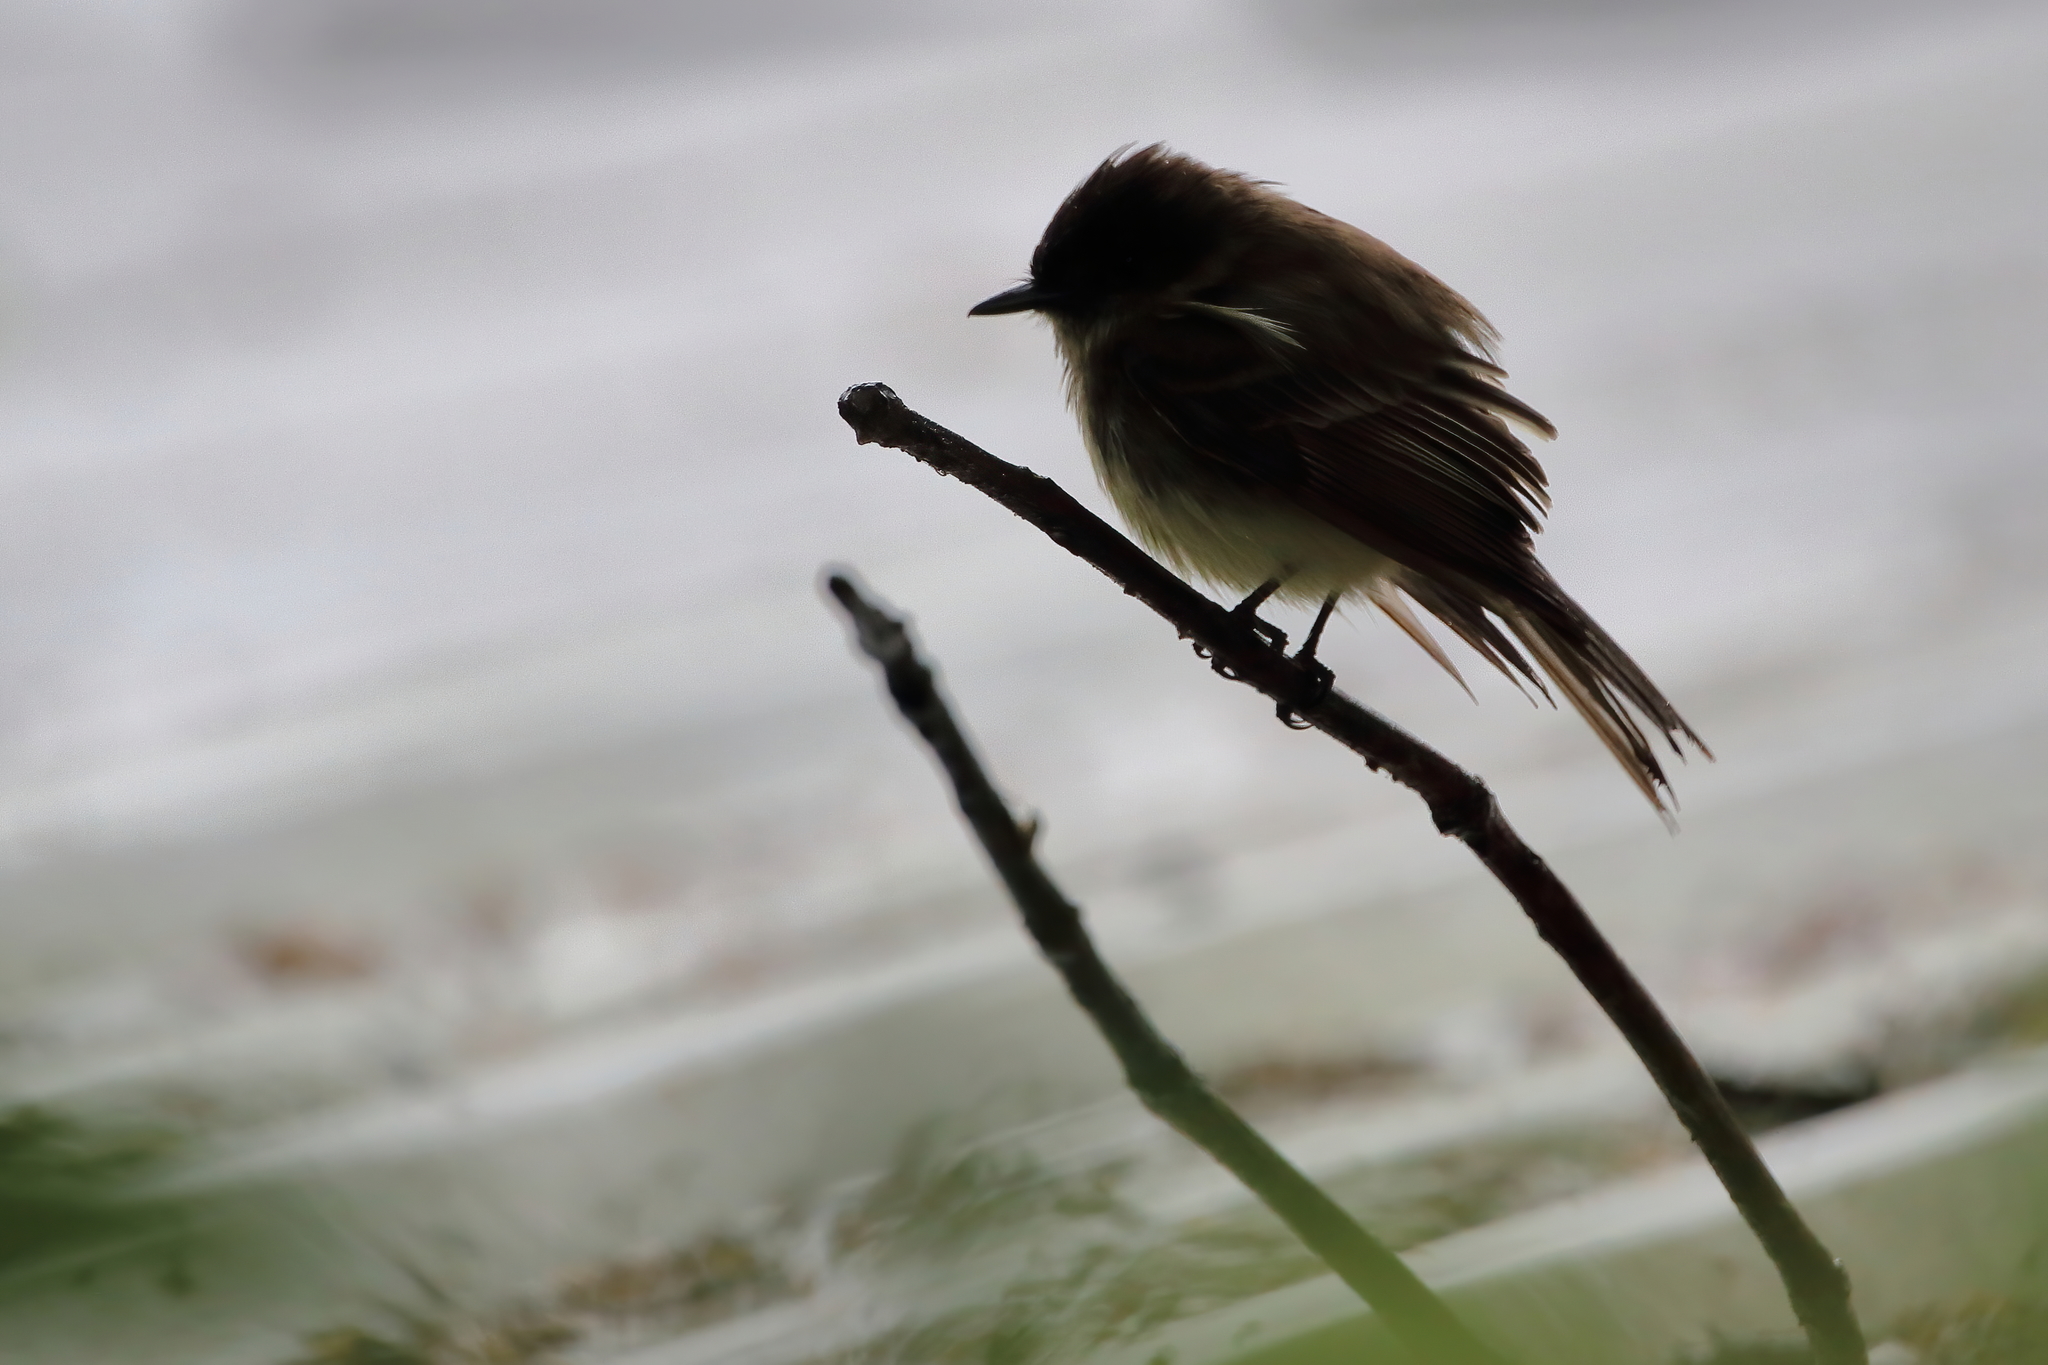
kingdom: Animalia
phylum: Chordata
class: Aves
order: Passeriformes
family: Tyrannidae
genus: Sayornis
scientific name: Sayornis phoebe
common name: Eastern phoebe
